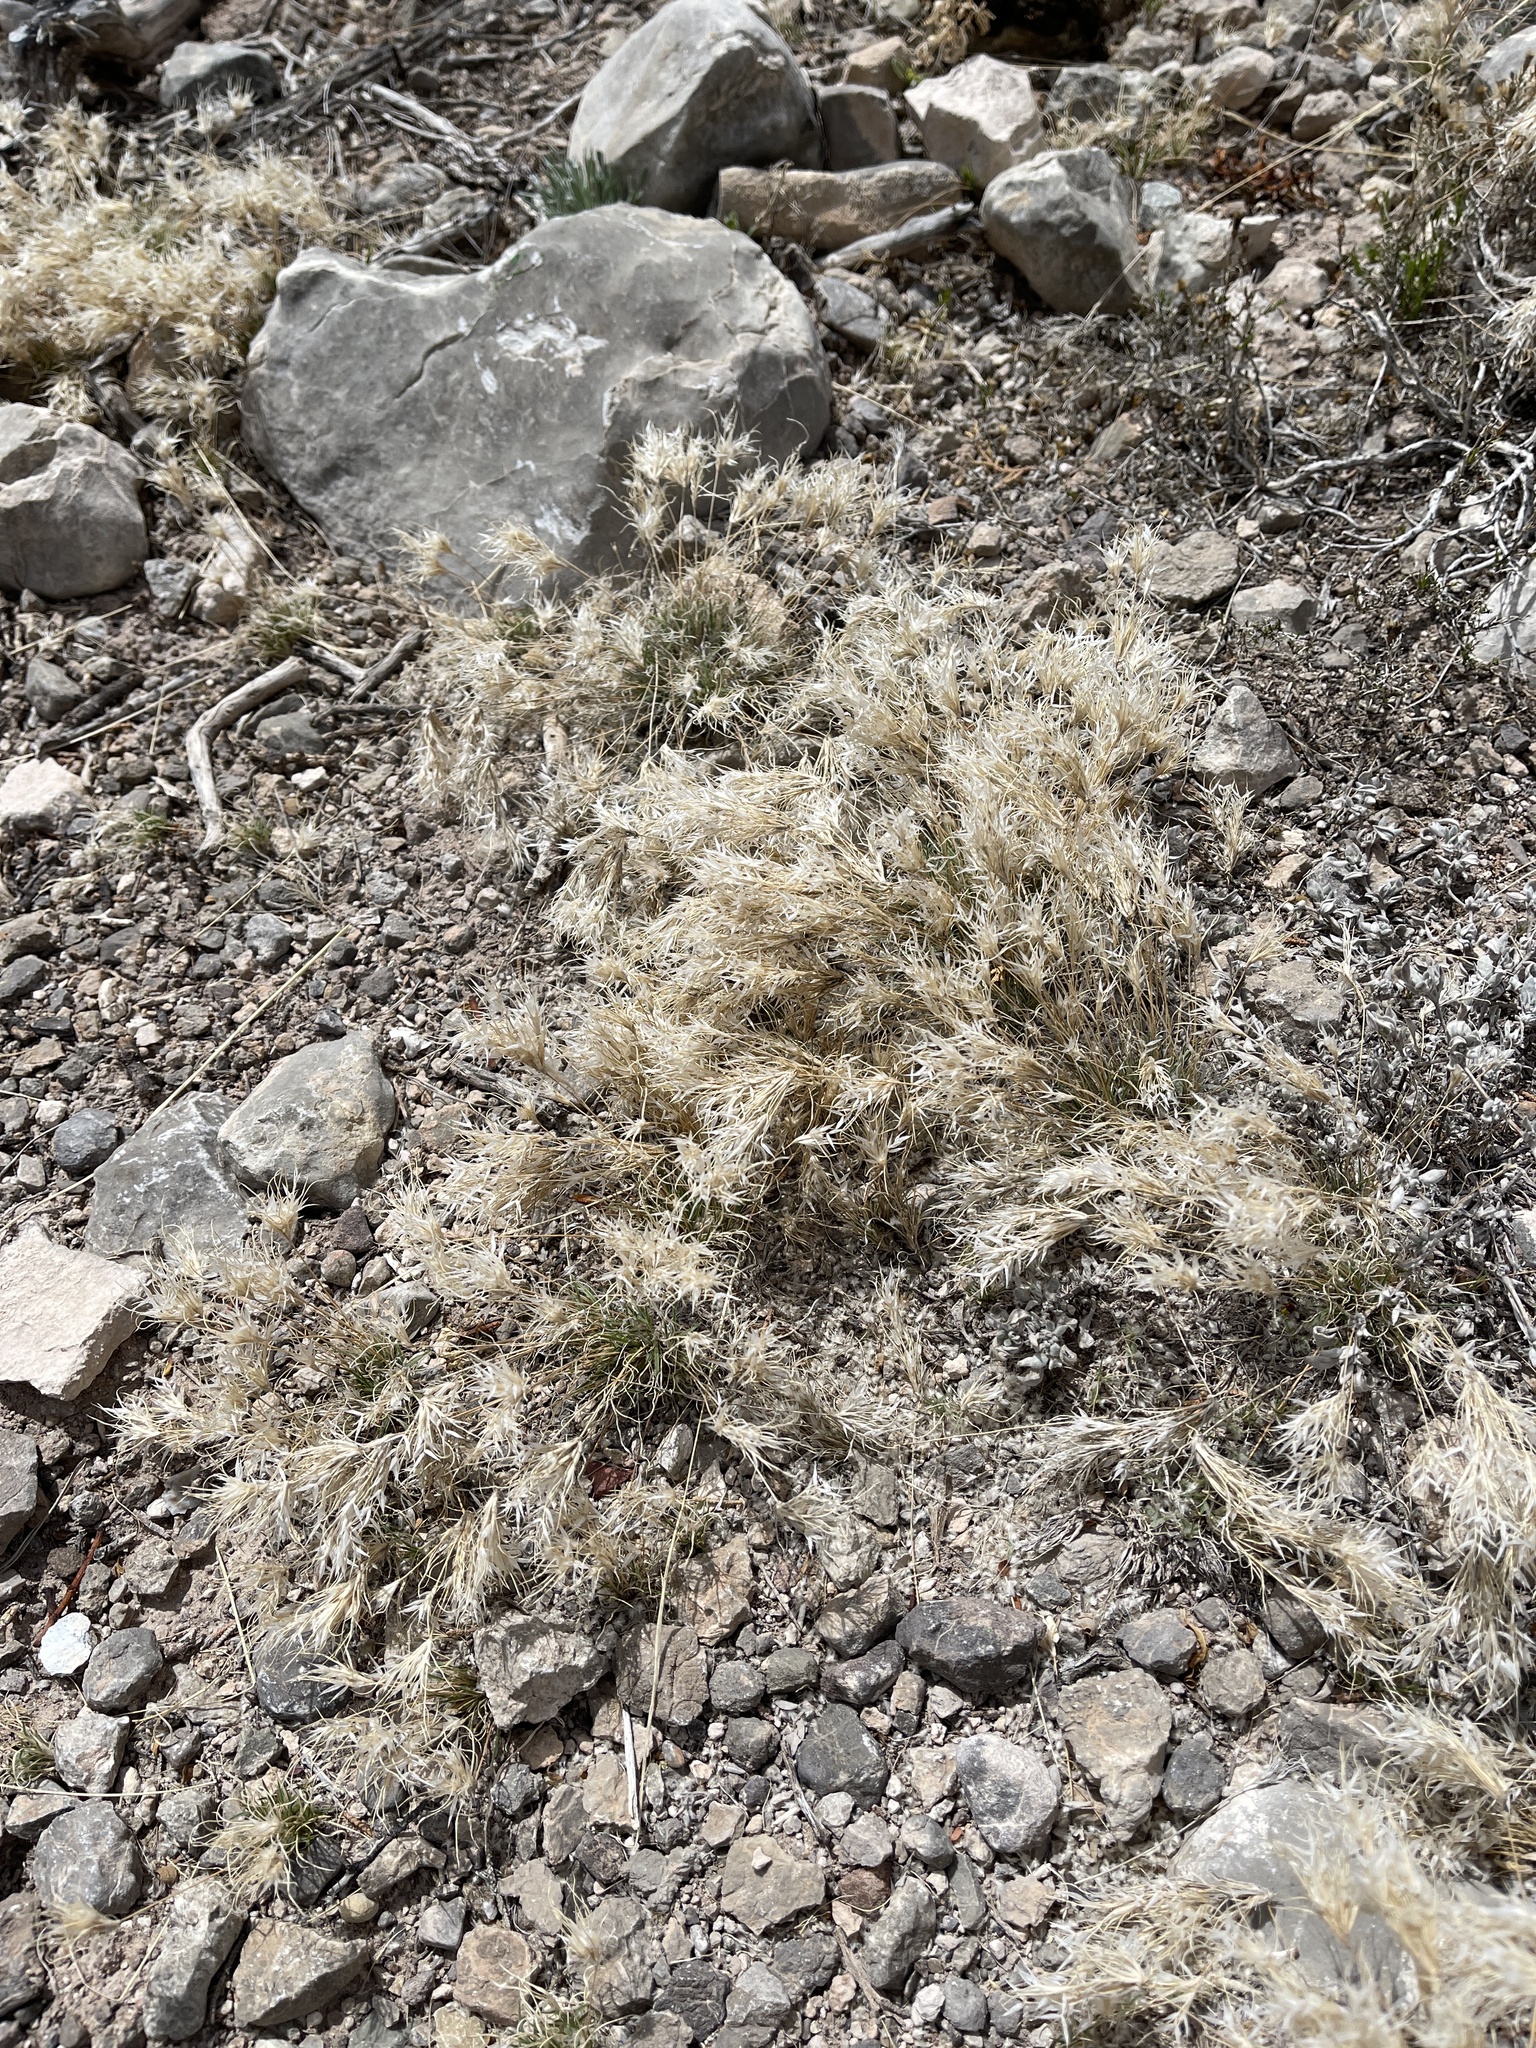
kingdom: Plantae
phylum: Tracheophyta
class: Liliopsida
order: Poales
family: Poaceae
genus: Dasyochloa
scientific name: Dasyochloa pulchella
